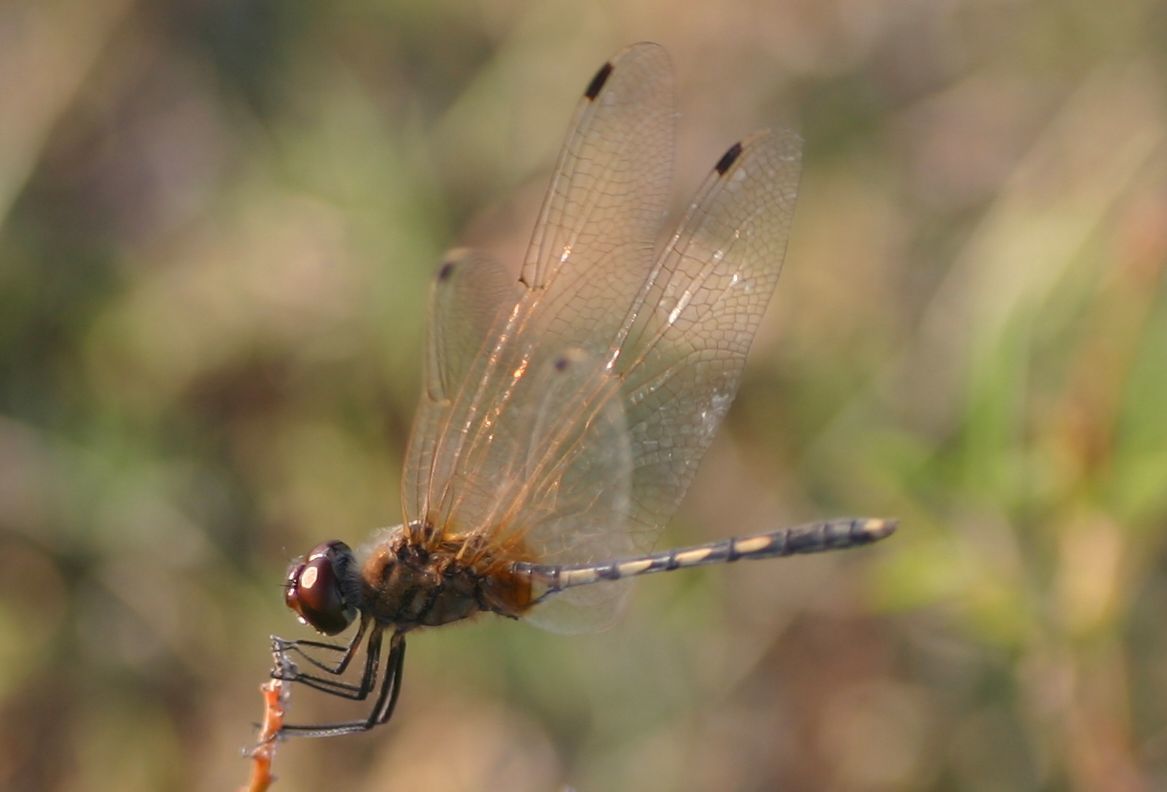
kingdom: Animalia
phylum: Arthropoda
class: Insecta
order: Odonata
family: Libellulidae
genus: Trithemis
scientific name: Trithemis pallidinervis
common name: Dancing dropwing
